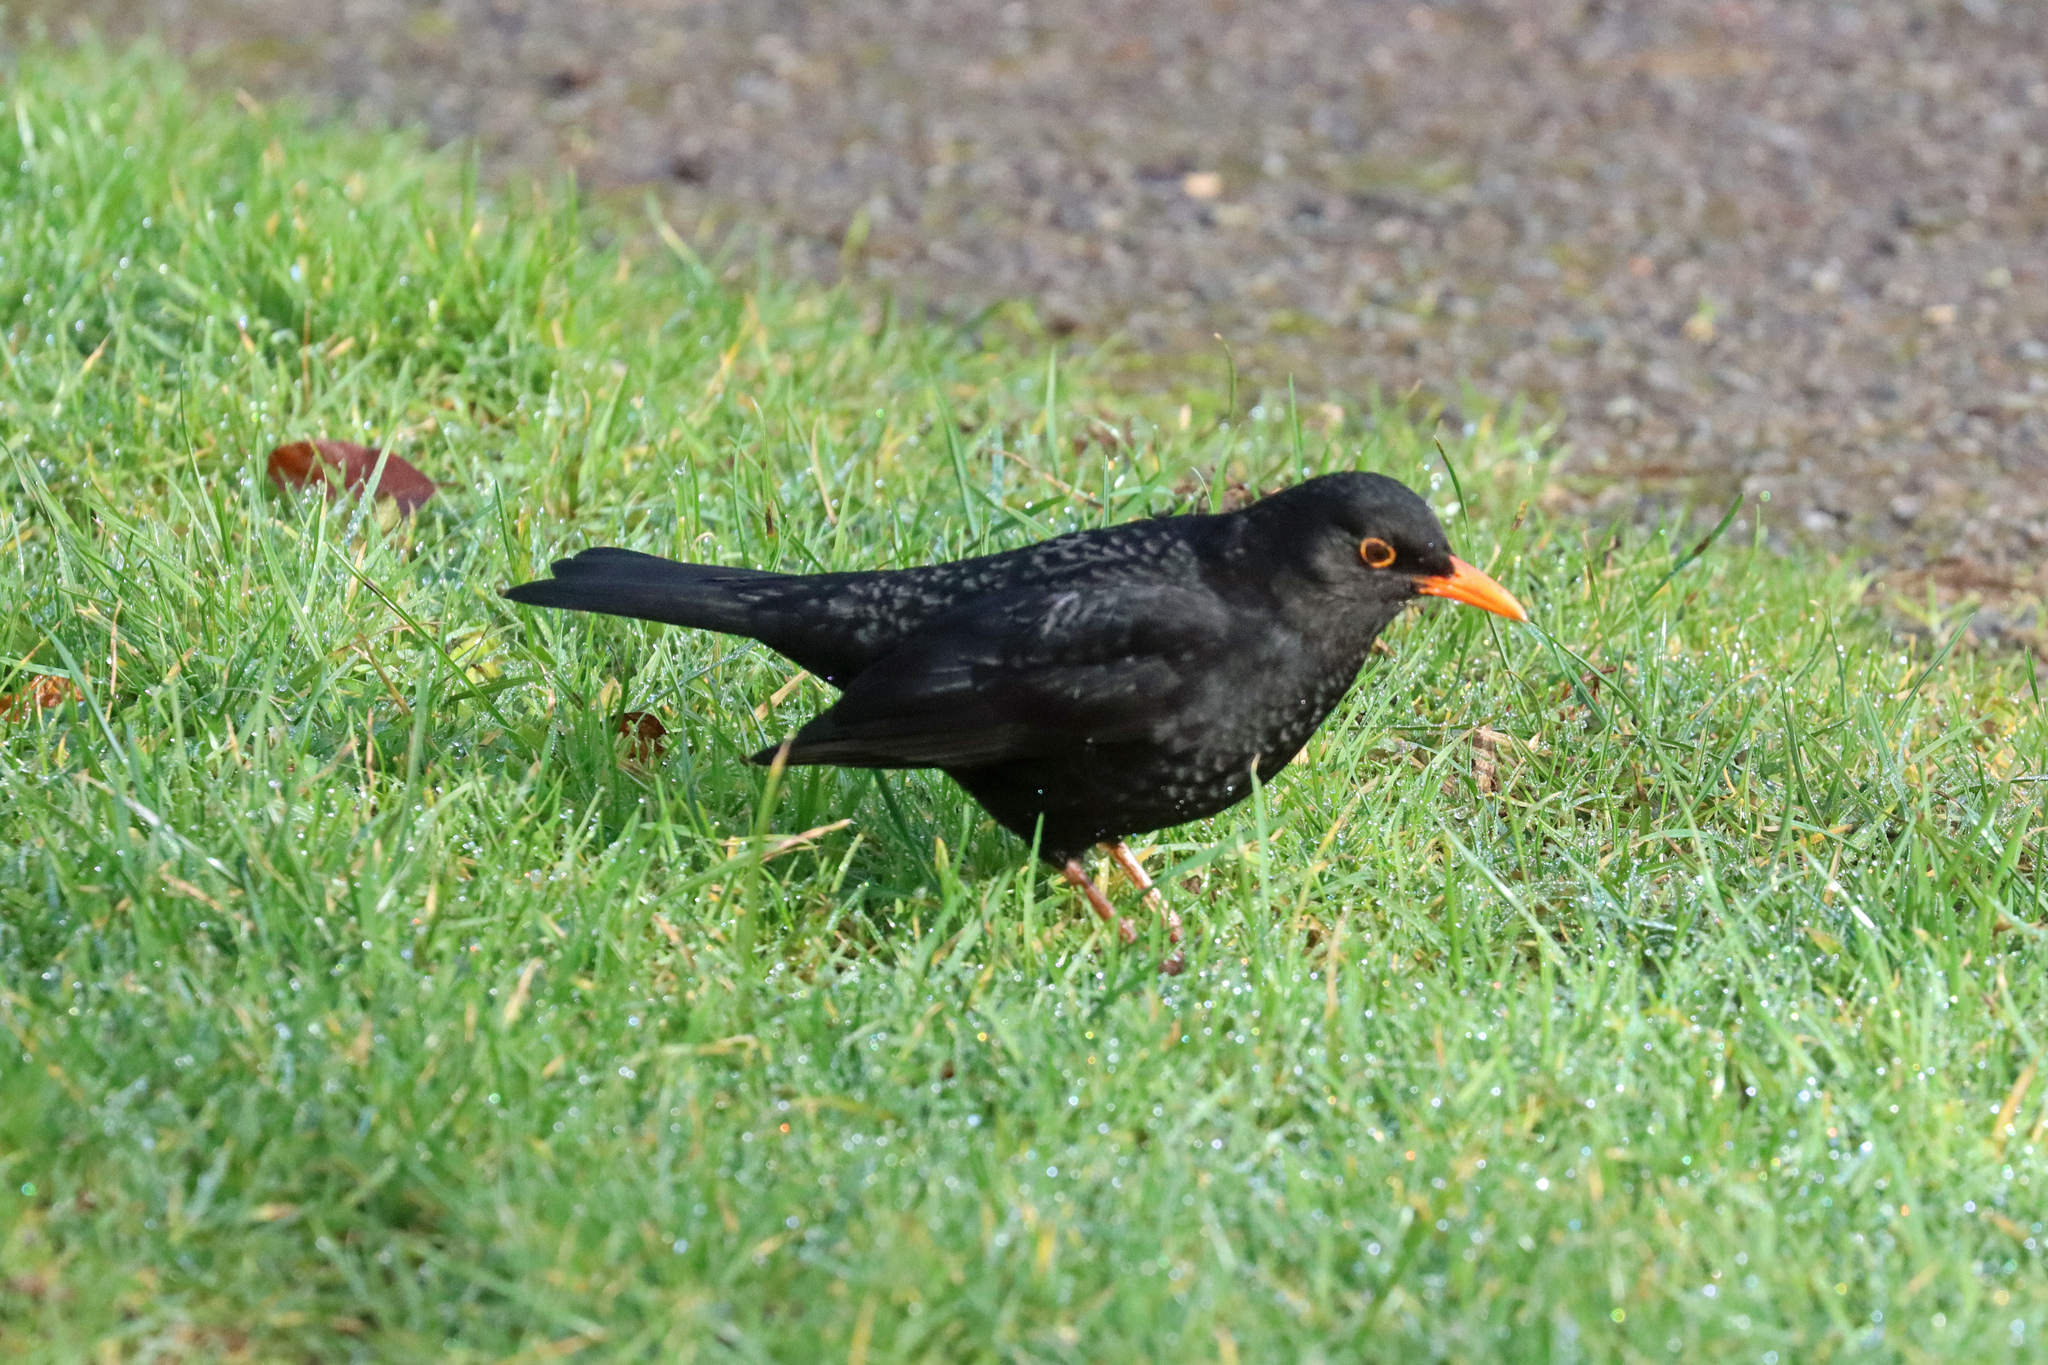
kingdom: Animalia
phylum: Chordata
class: Aves
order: Passeriformes
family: Turdidae
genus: Turdus
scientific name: Turdus merula
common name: Common blackbird
